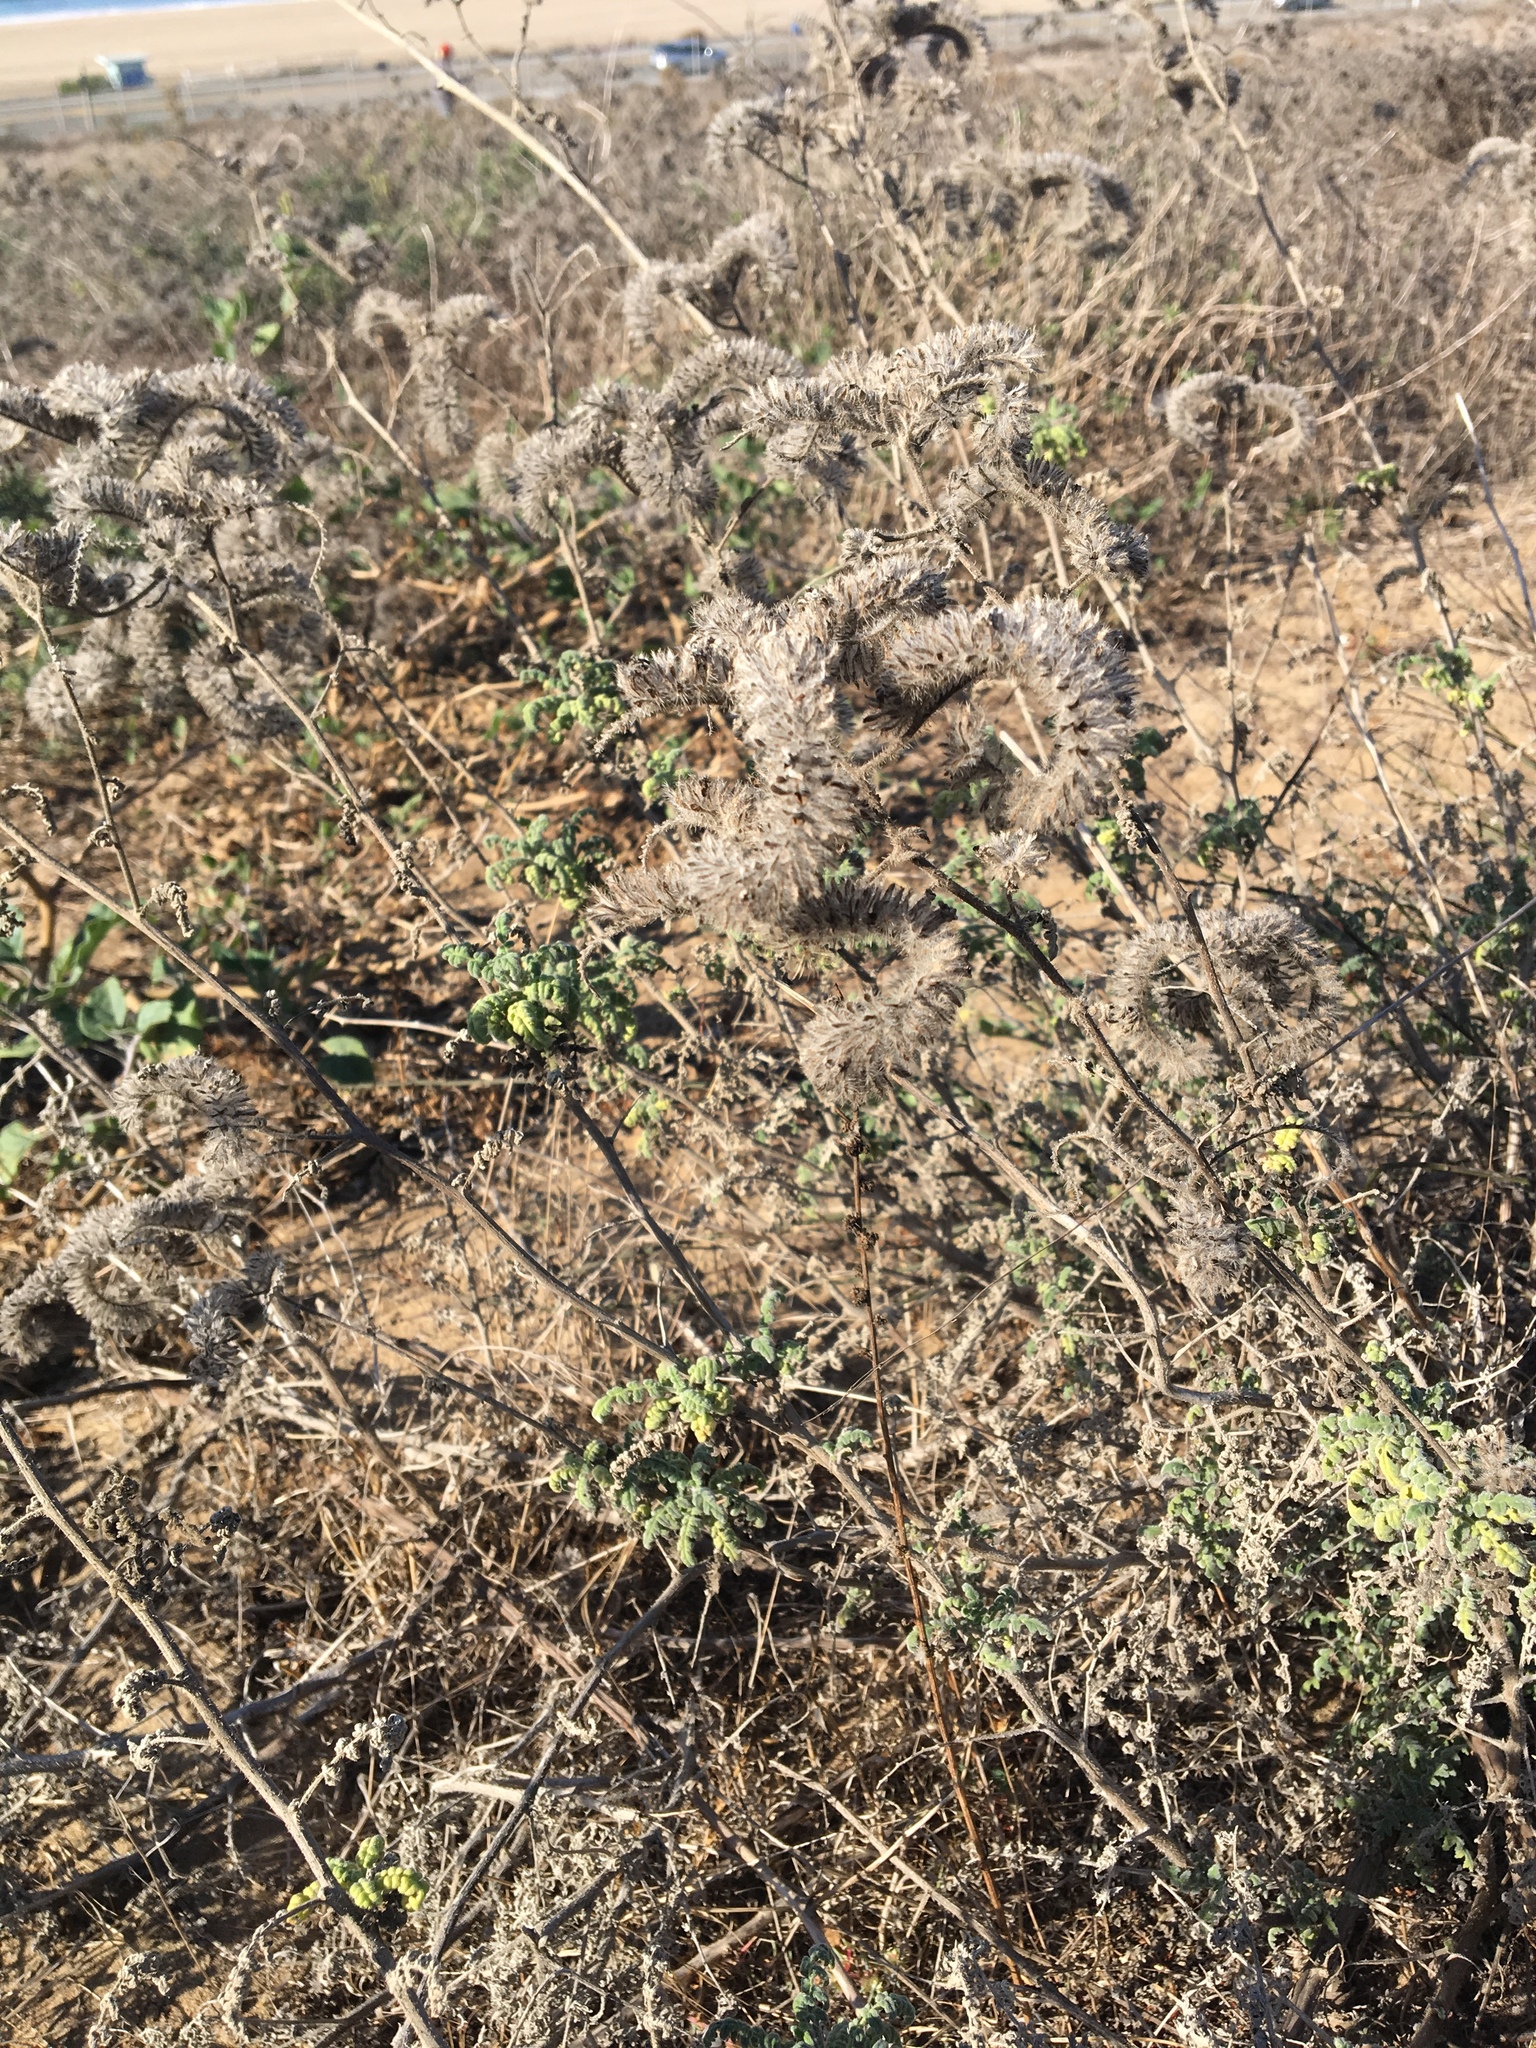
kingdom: Plantae
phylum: Tracheophyta
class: Magnoliopsida
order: Boraginales
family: Hydrophyllaceae
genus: Phacelia
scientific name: Phacelia ramosissima
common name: Branching phacelia
